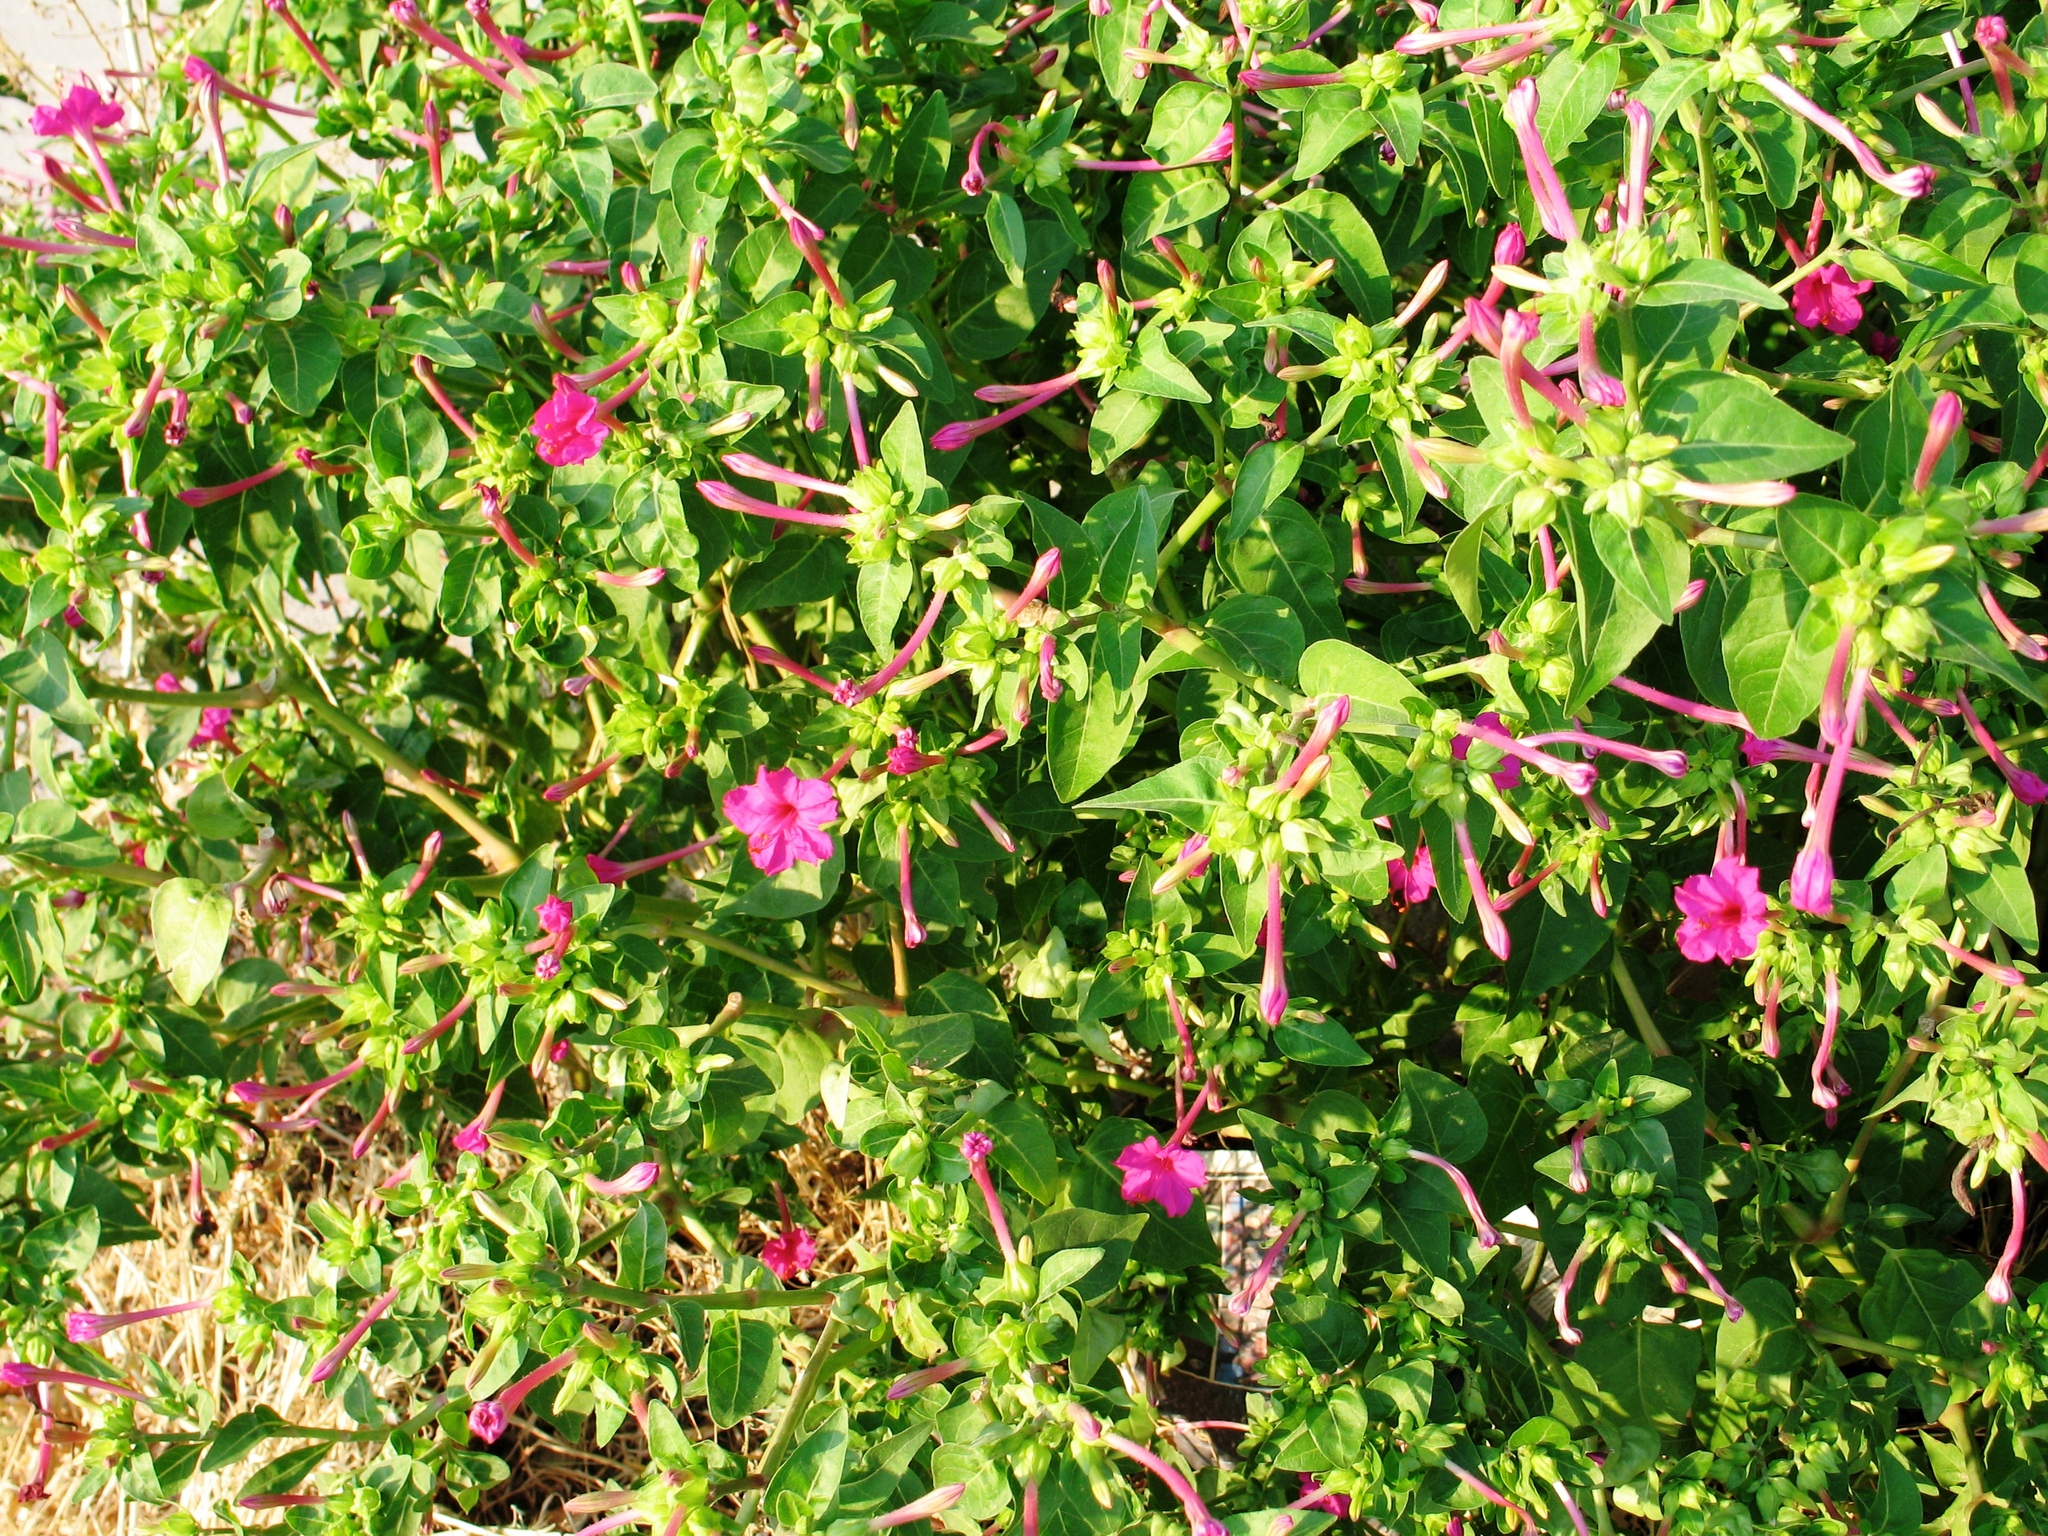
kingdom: Plantae
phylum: Tracheophyta
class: Magnoliopsida
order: Caryophyllales
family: Nyctaginaceae
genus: Mirabilis
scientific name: Mirabilis jalapa
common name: Marvel-of-peru
